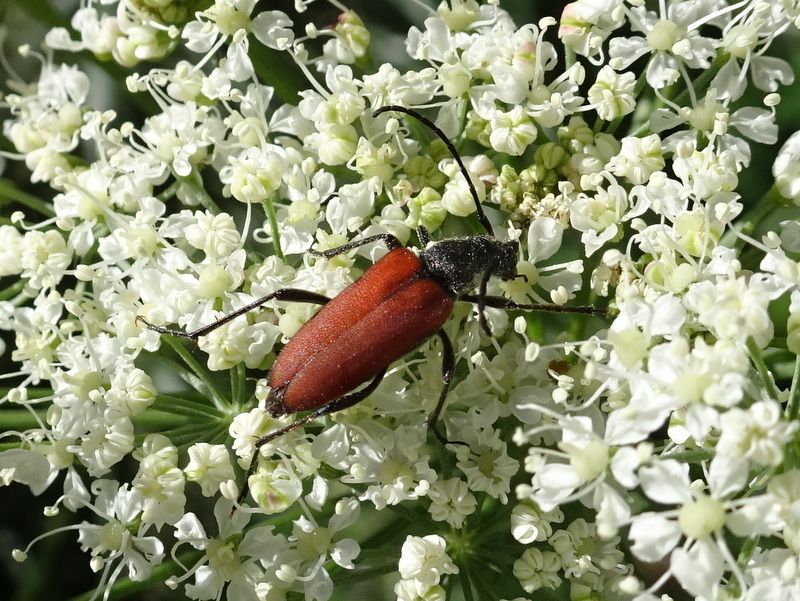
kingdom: Animalia
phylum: Arthropoda
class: Insecta
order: Coleoptera
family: Cerambycidae
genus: Anastrangalia
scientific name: Anastrangalia sanguinolenta
